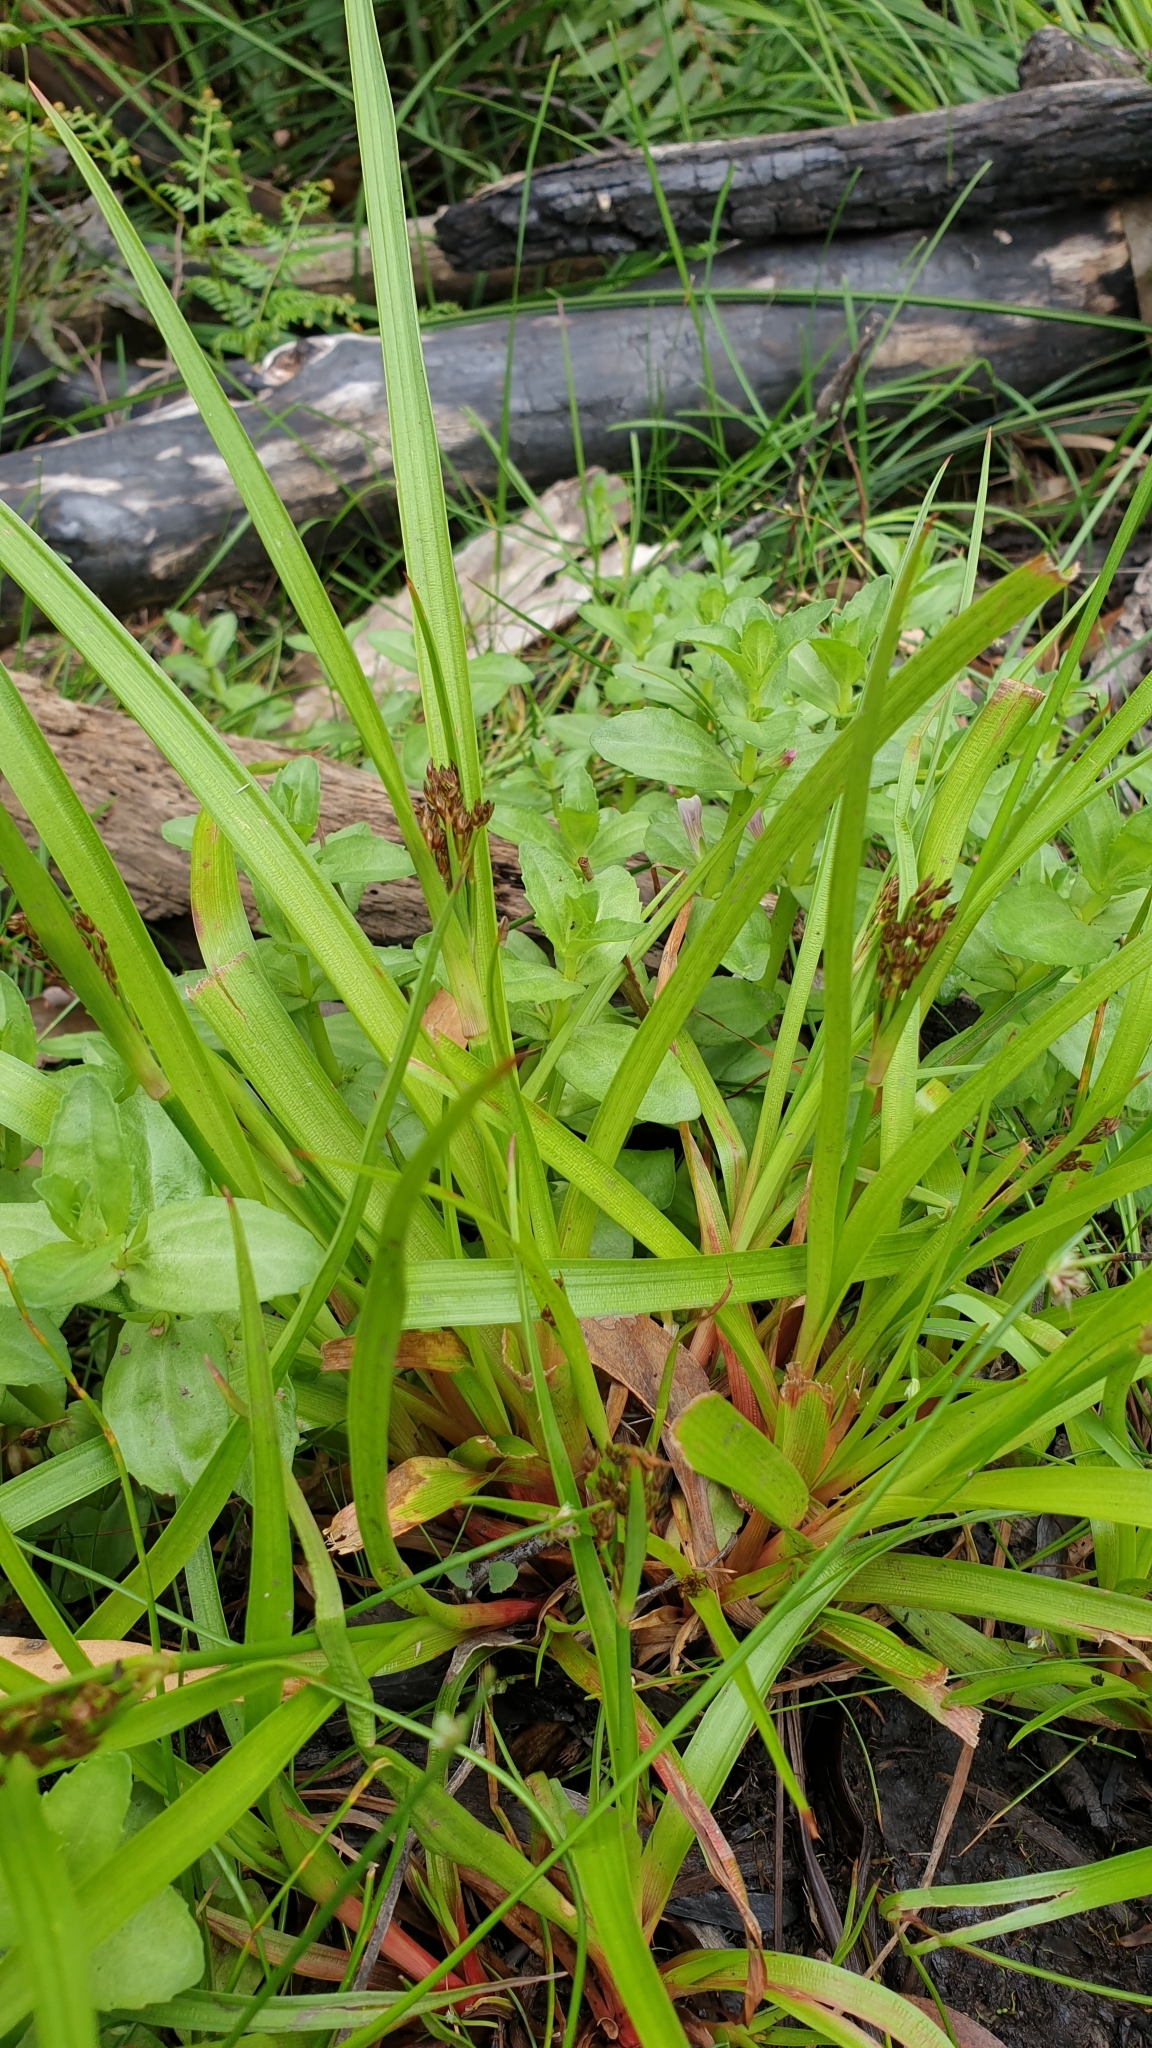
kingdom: Plantae
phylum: Tracheophyta
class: Liliopsida
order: Poales
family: Juncaceae
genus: Juncus
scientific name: Juncus planifolius
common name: Broadleaf rush
